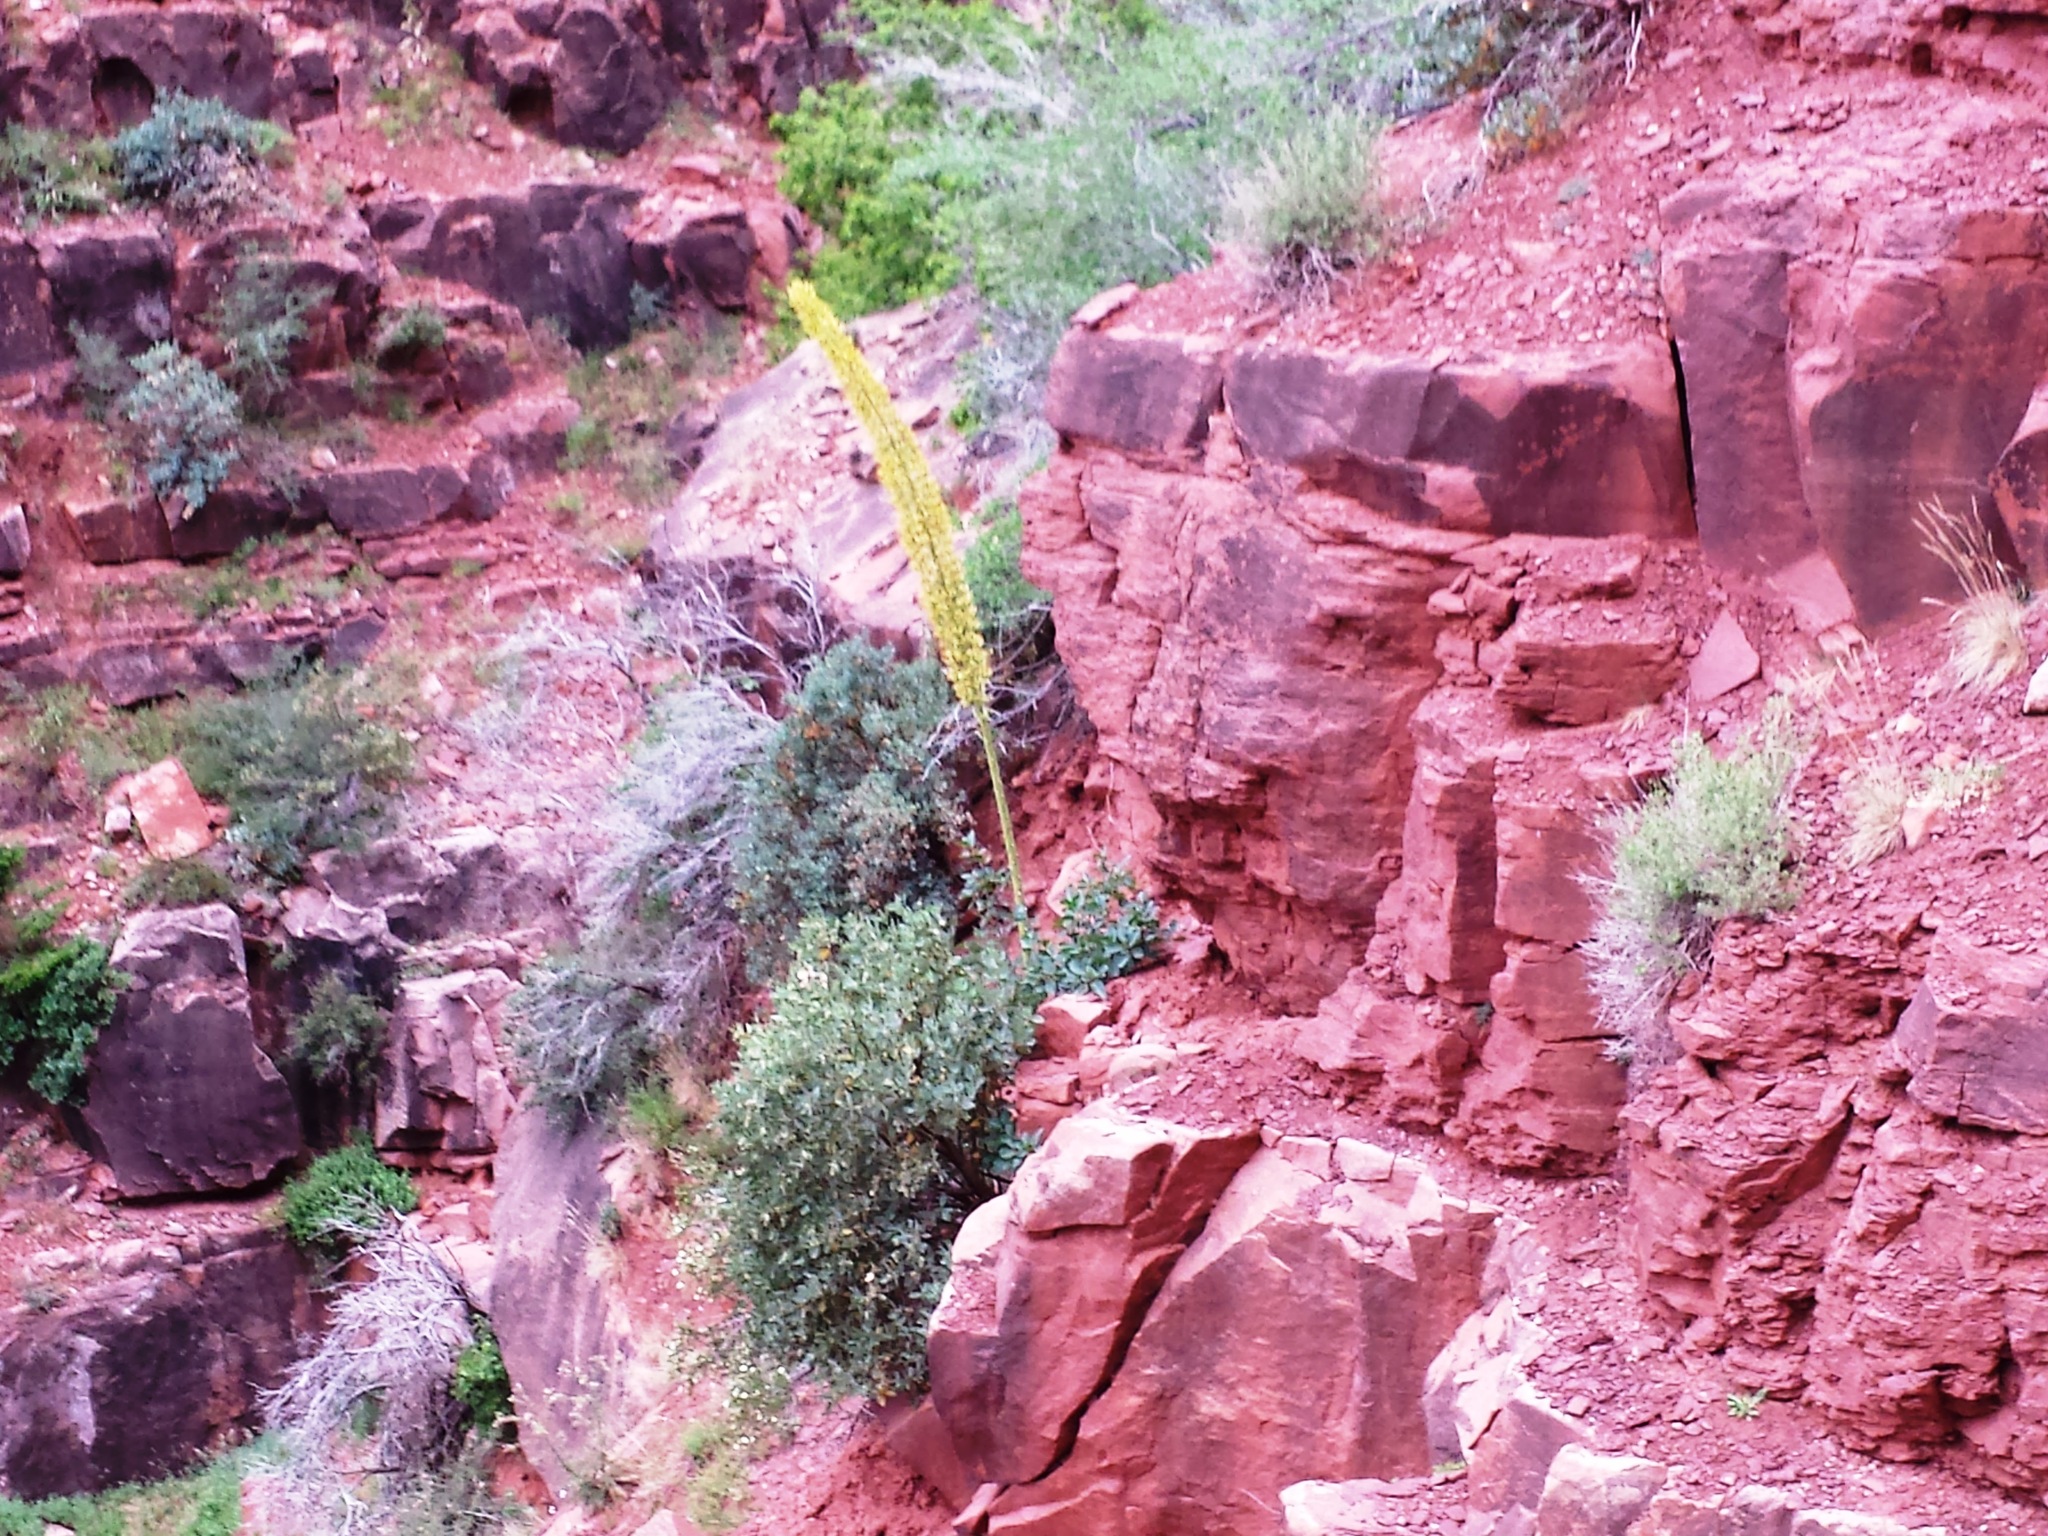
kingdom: Plantae
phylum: Tracheophyta
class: Liliopsida
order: Asparagales
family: Asparagaceae
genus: Agave
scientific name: Agave utahensis
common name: Utah agave
